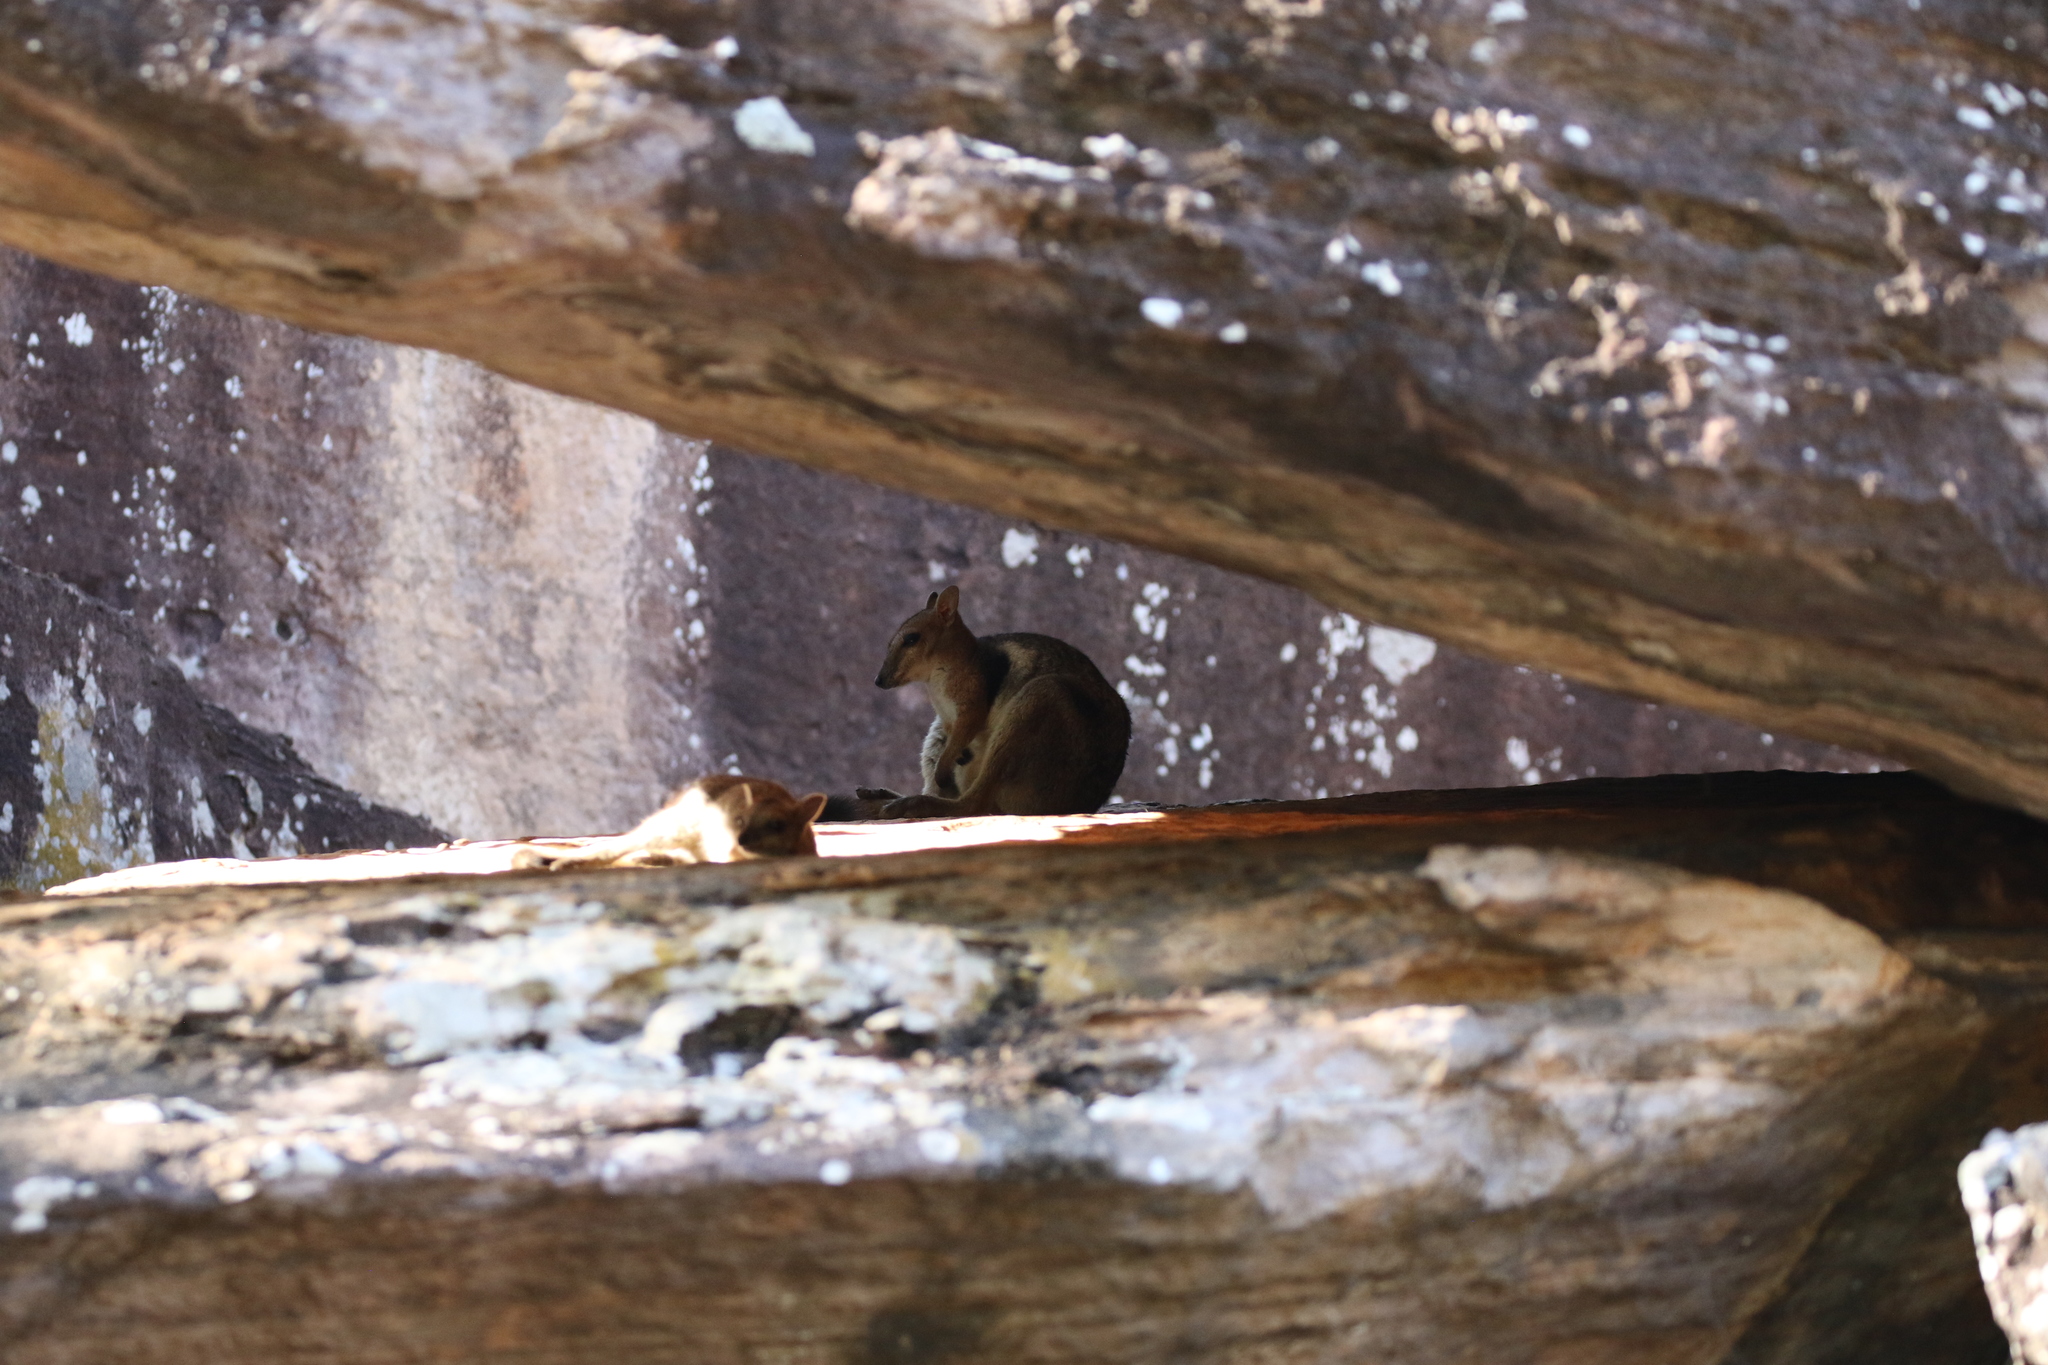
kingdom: Animalia
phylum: Chordata
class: Mammalia
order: Diprotodontia
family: Macropodidae
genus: Petrogale
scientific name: Petrogale wilkinsi
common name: Wilkins’s rock wallaby
